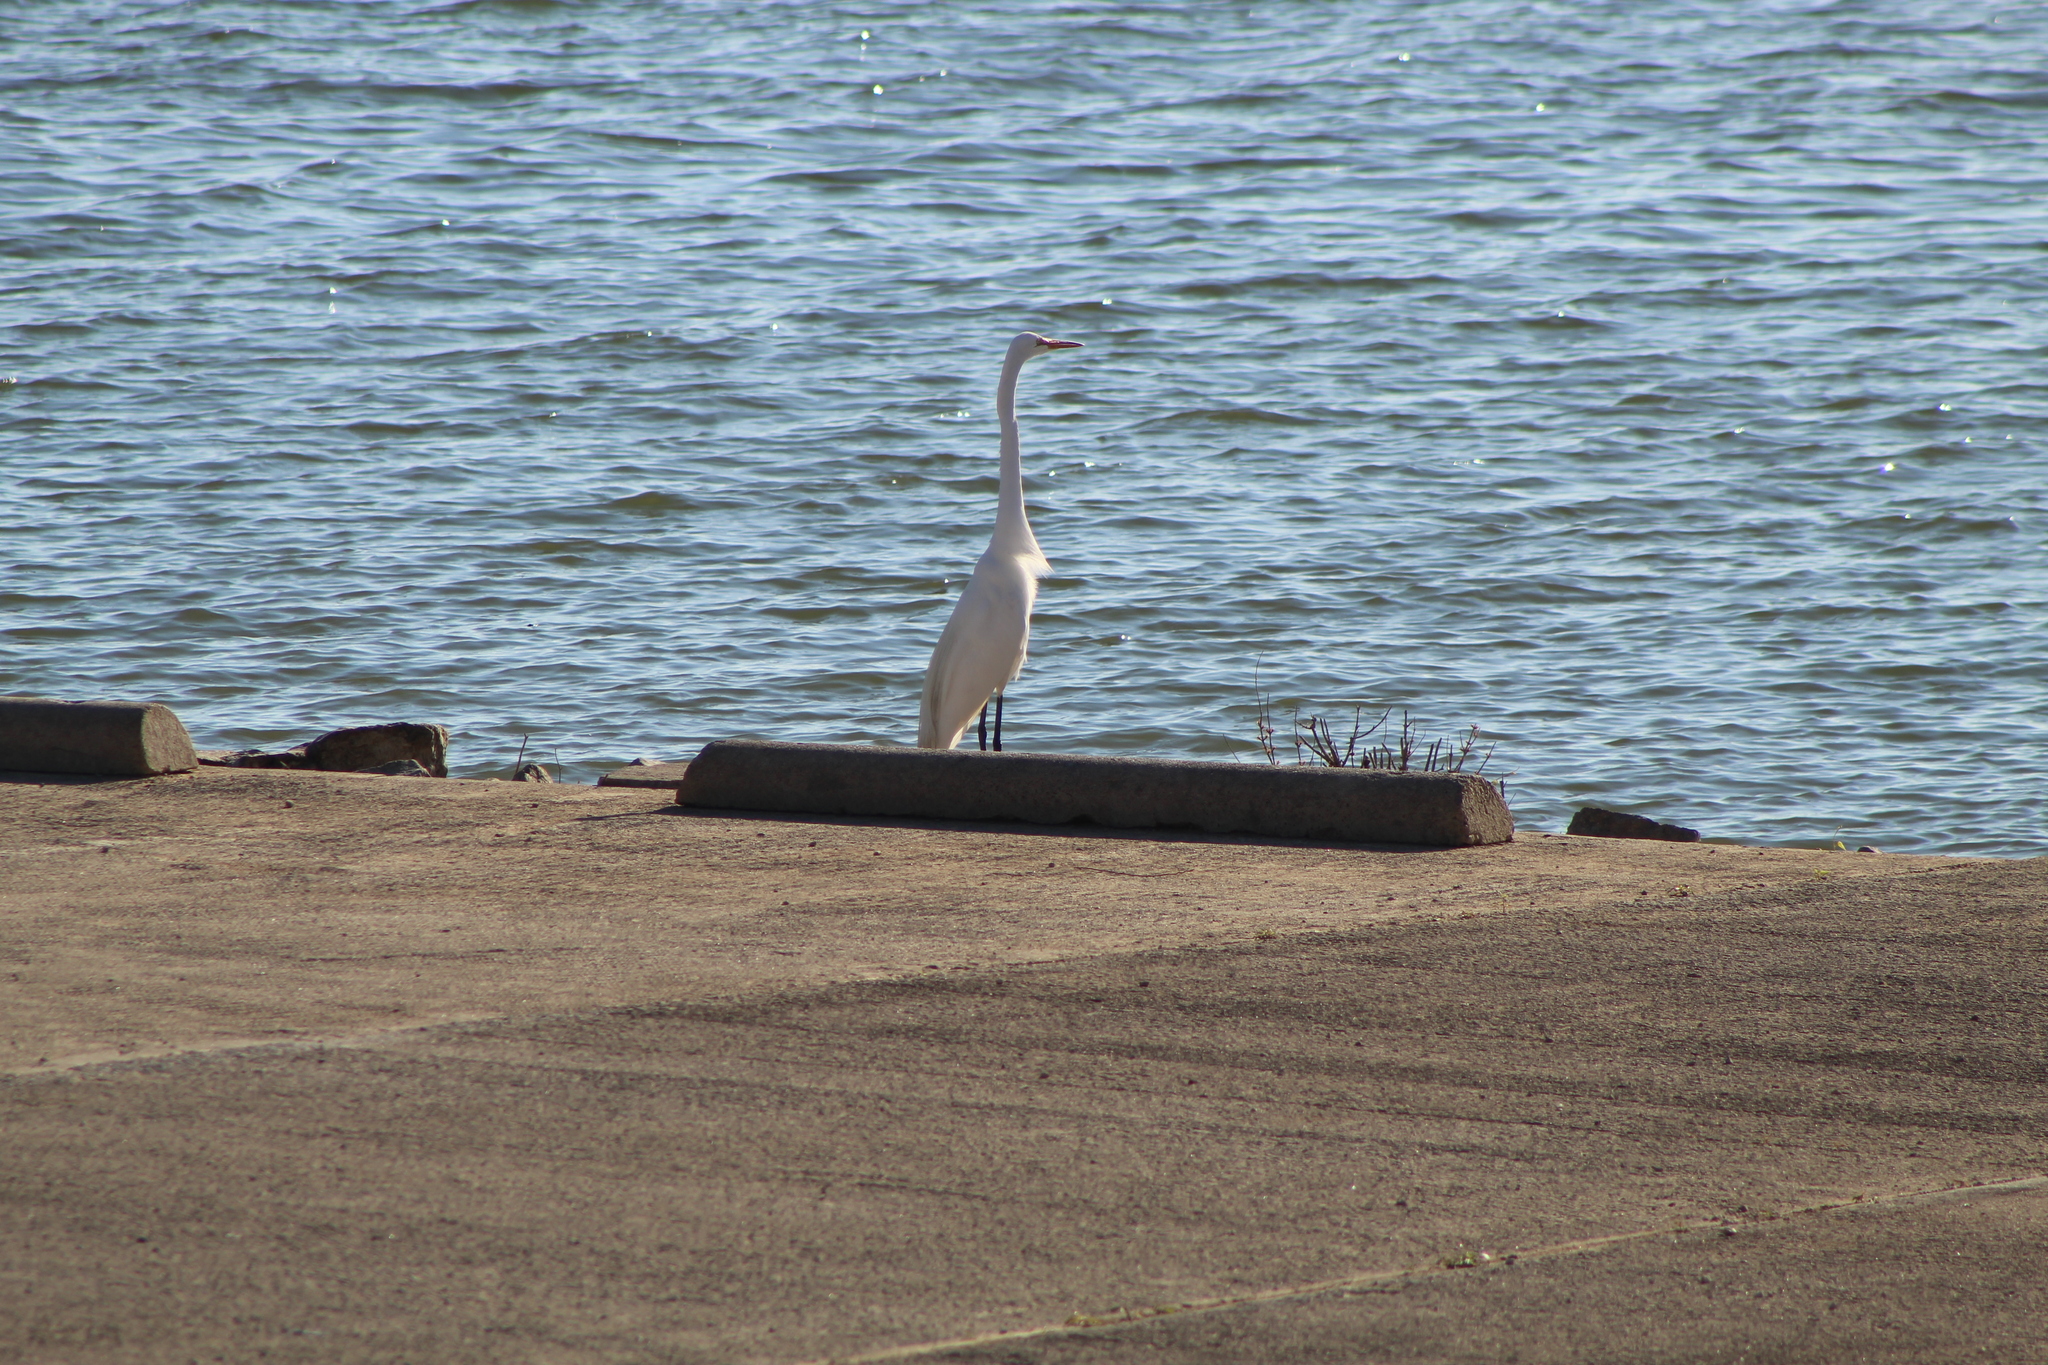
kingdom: Animalia
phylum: Chordata
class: Aves
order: Pelecaniformes
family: Ardeidae
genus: Ardea
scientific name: Ardea alba
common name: Great egret
